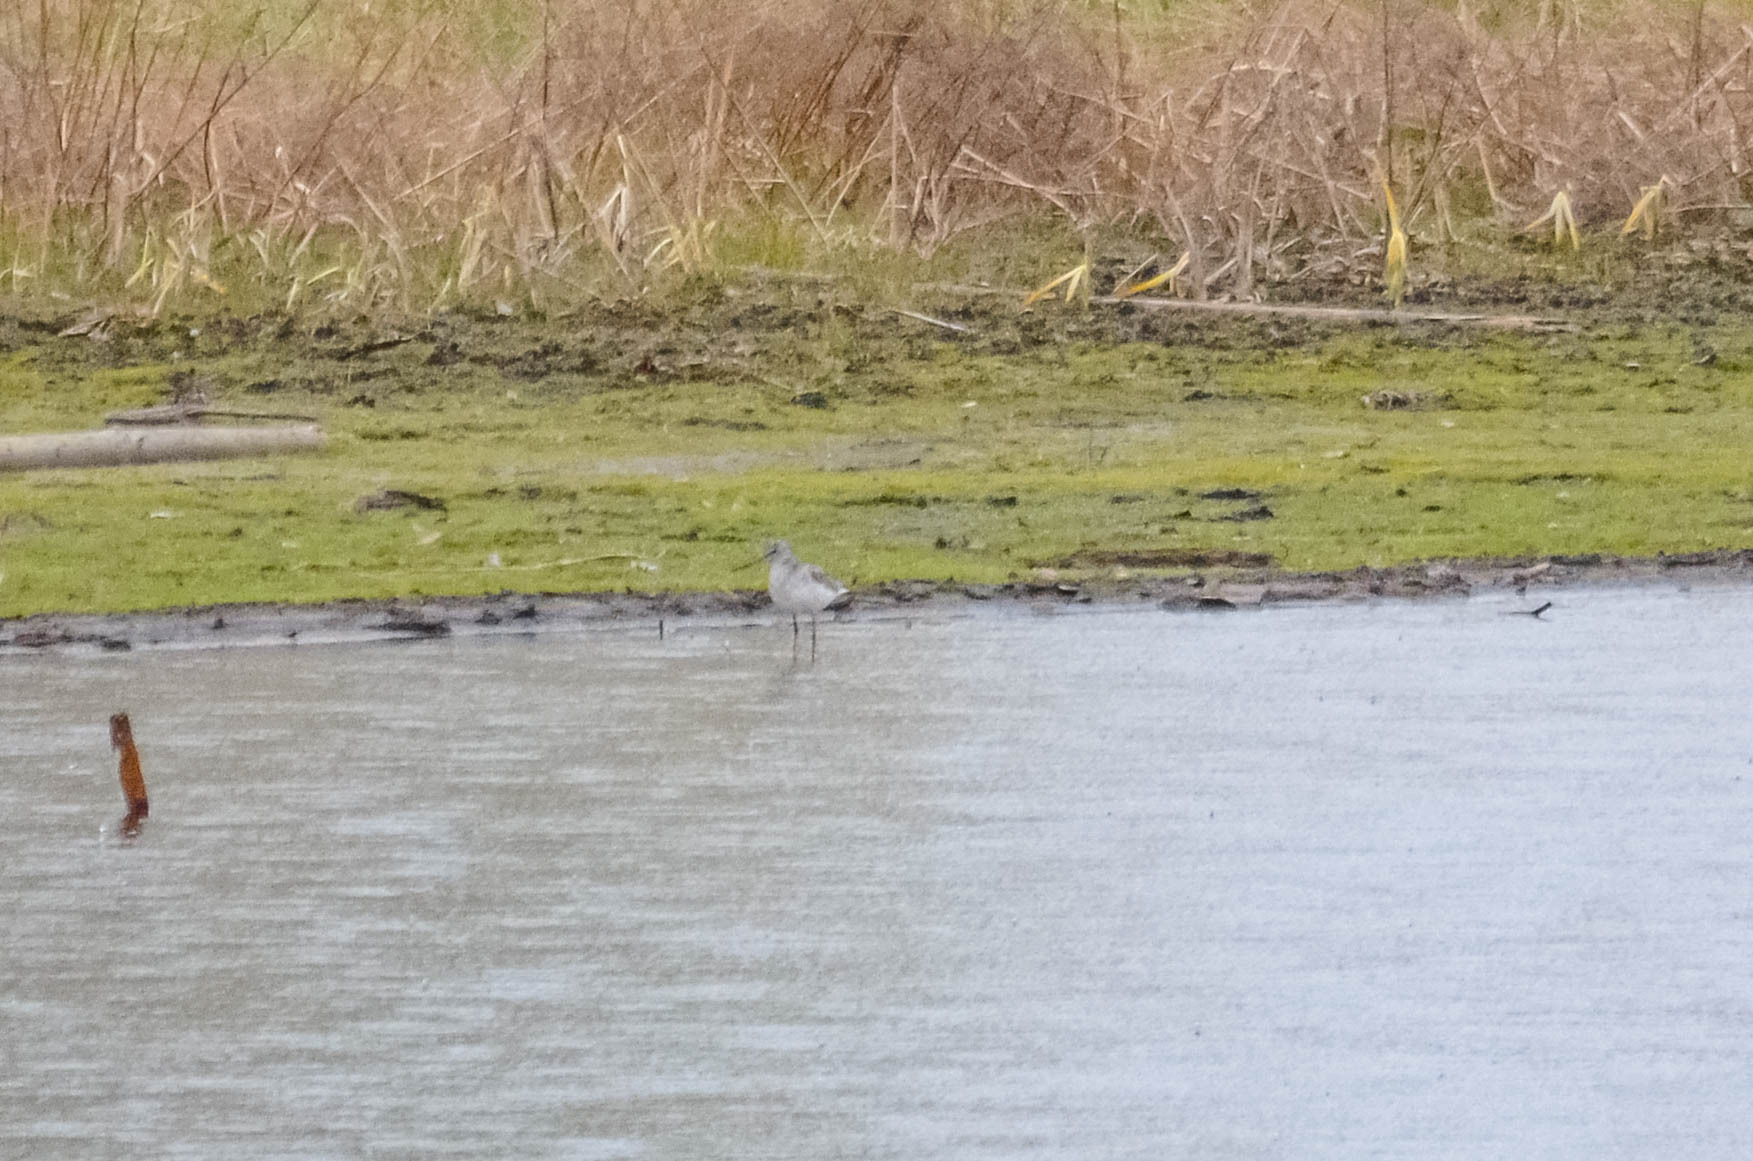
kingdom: Animalia
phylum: Chordata
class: Aves
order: Charadriiformes
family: Scolopacidae
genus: Tringa
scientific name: Tringa nebularia
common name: Common greenshank
